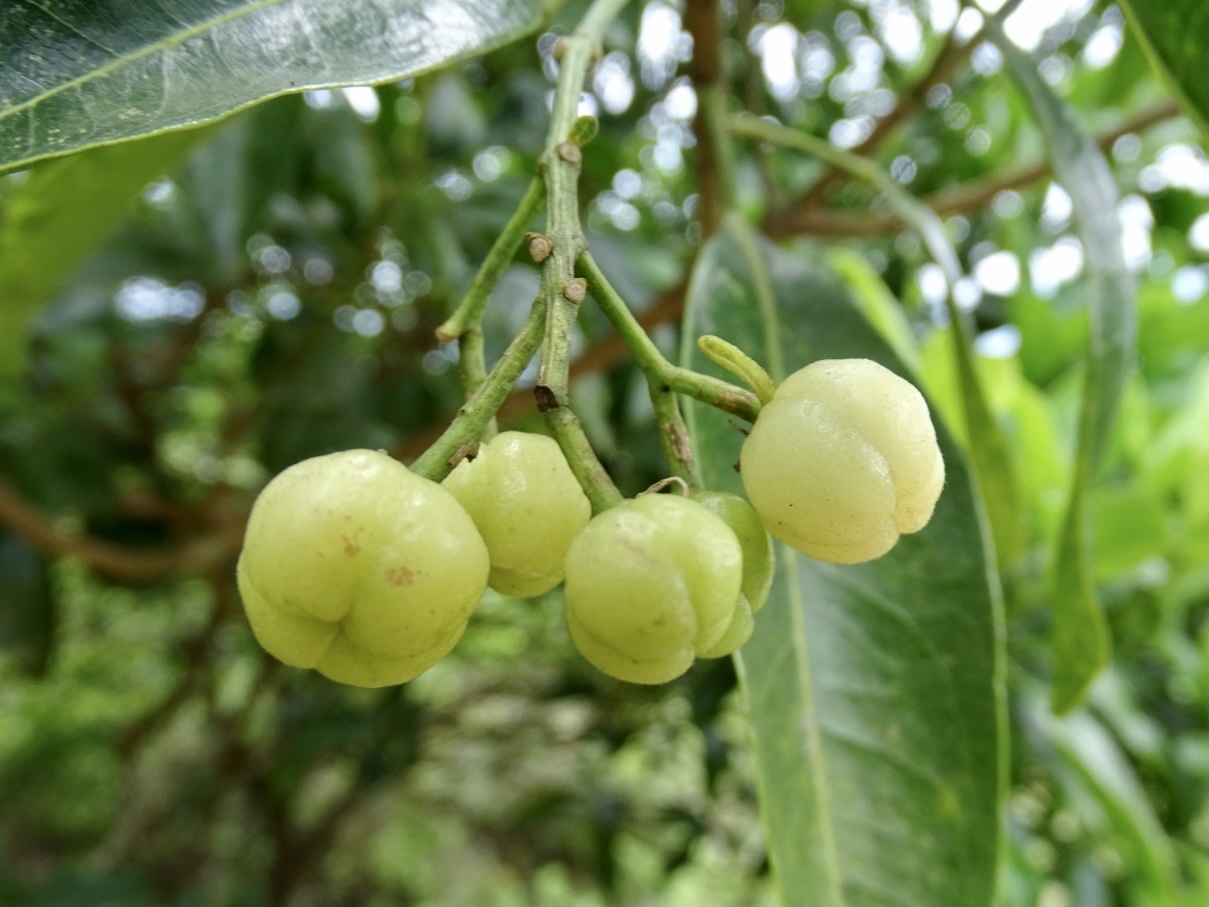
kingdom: Plantae
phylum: Tracheophyta
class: Magnoliopsida
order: Sapindales
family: Rutaceae
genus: Acronychia
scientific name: Acronychia pedunculata
